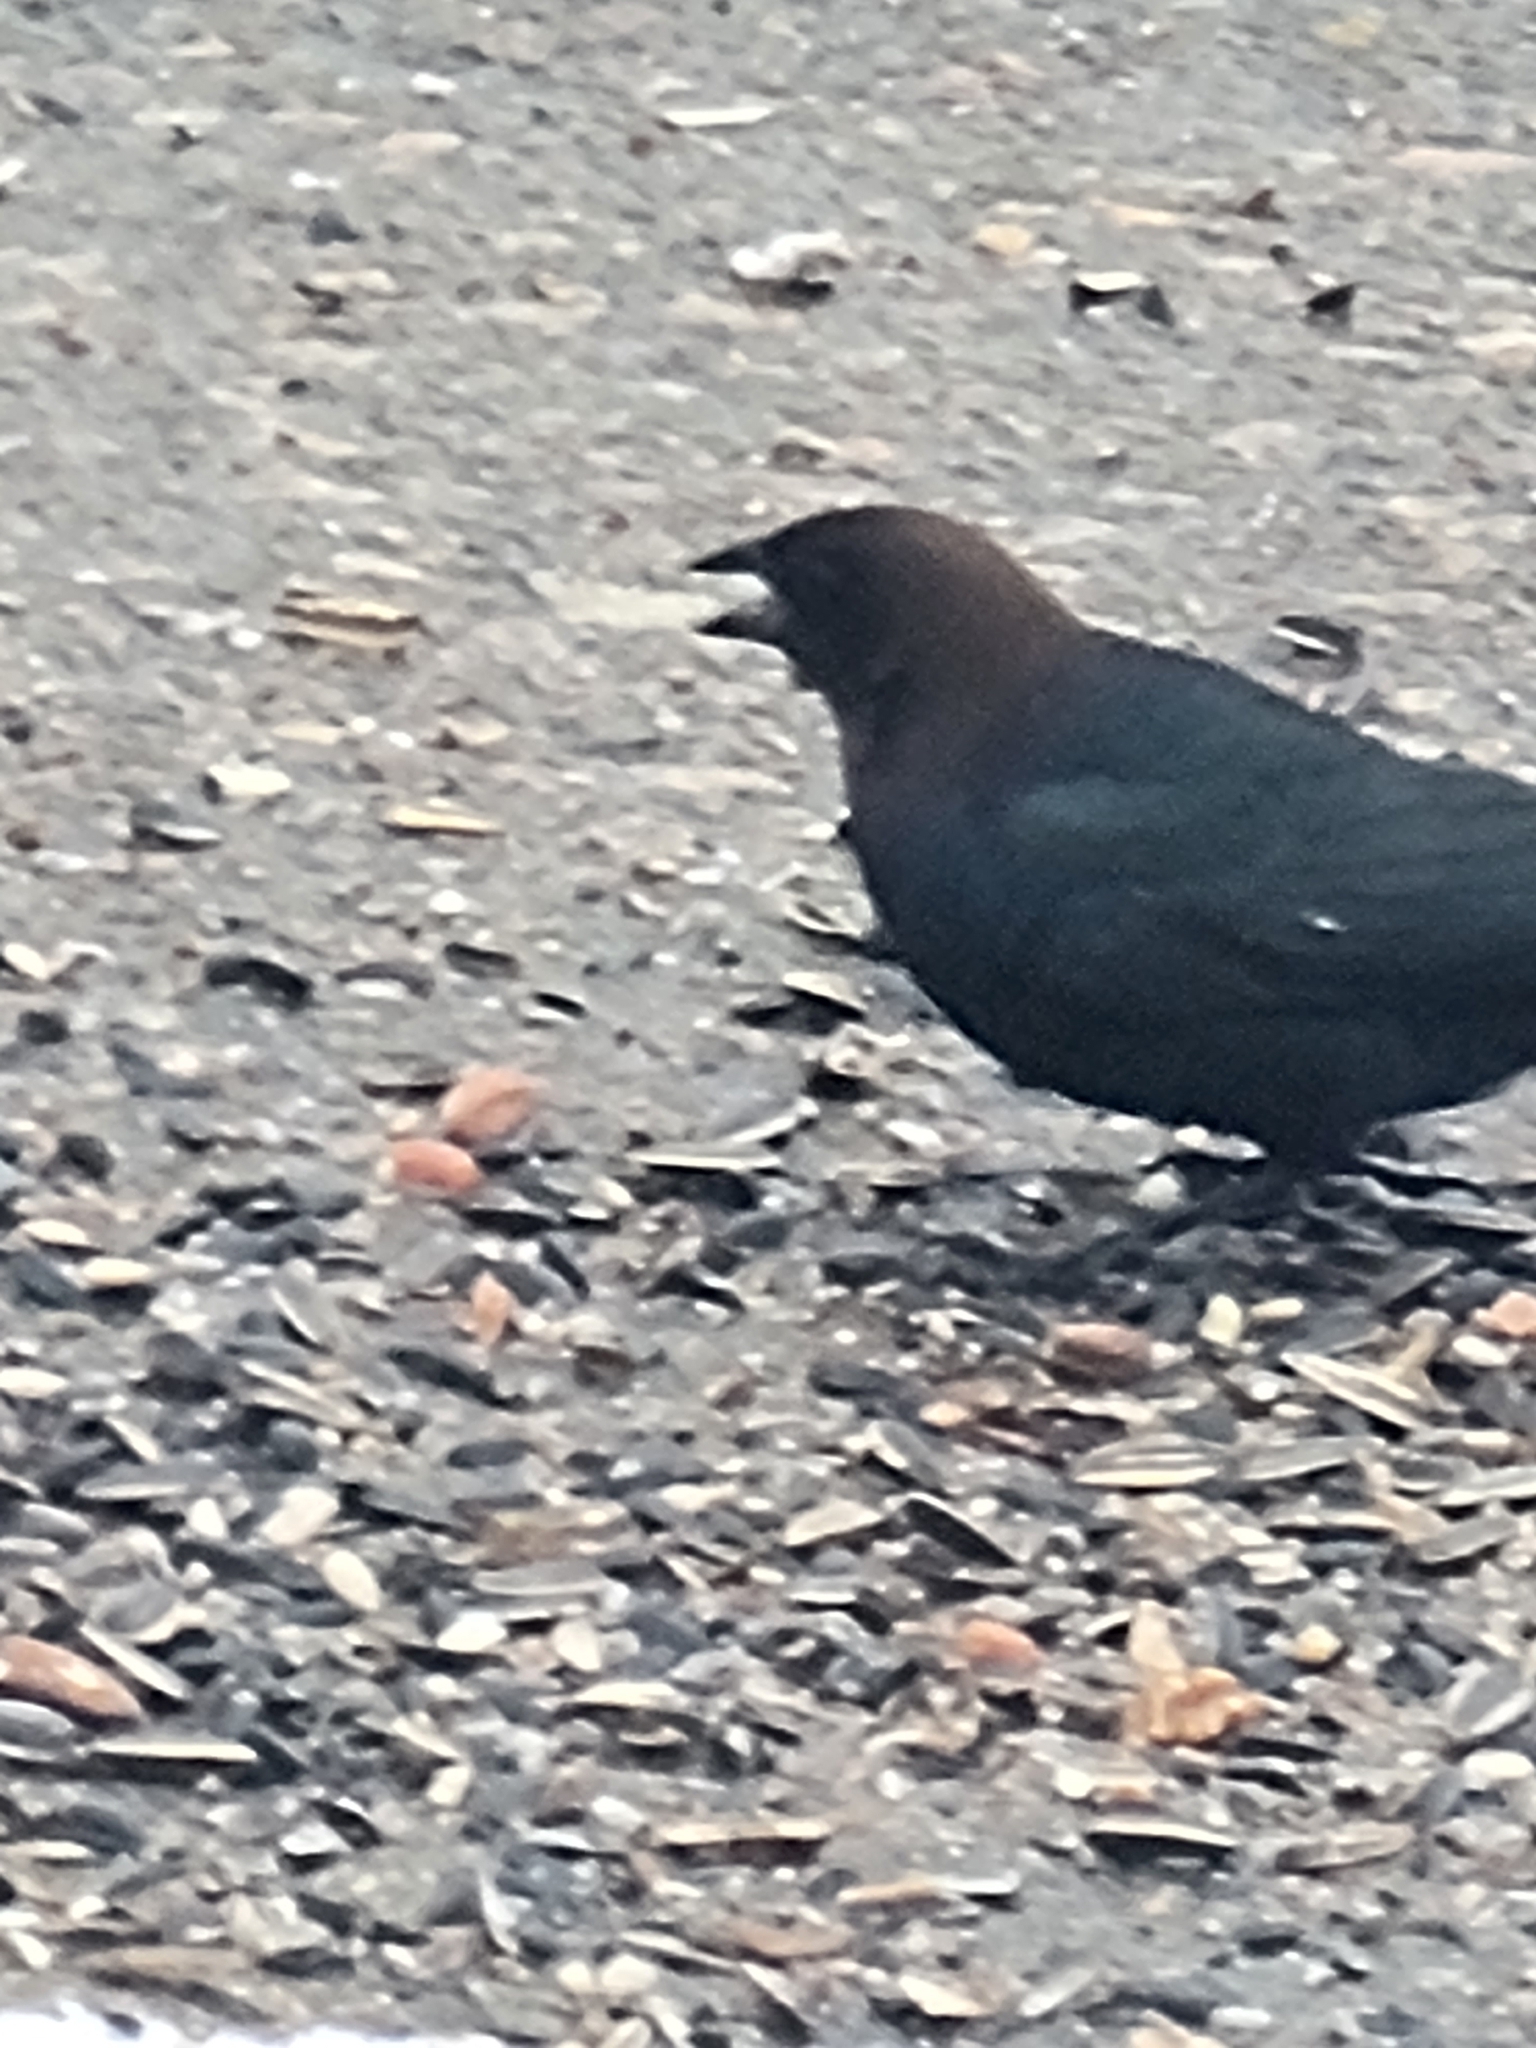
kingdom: Animalia
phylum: Chordata
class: Aves
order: Passeriformes
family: Icteridae
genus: Molothrus
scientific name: Molothrus ater
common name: Brown-headed cowbird
